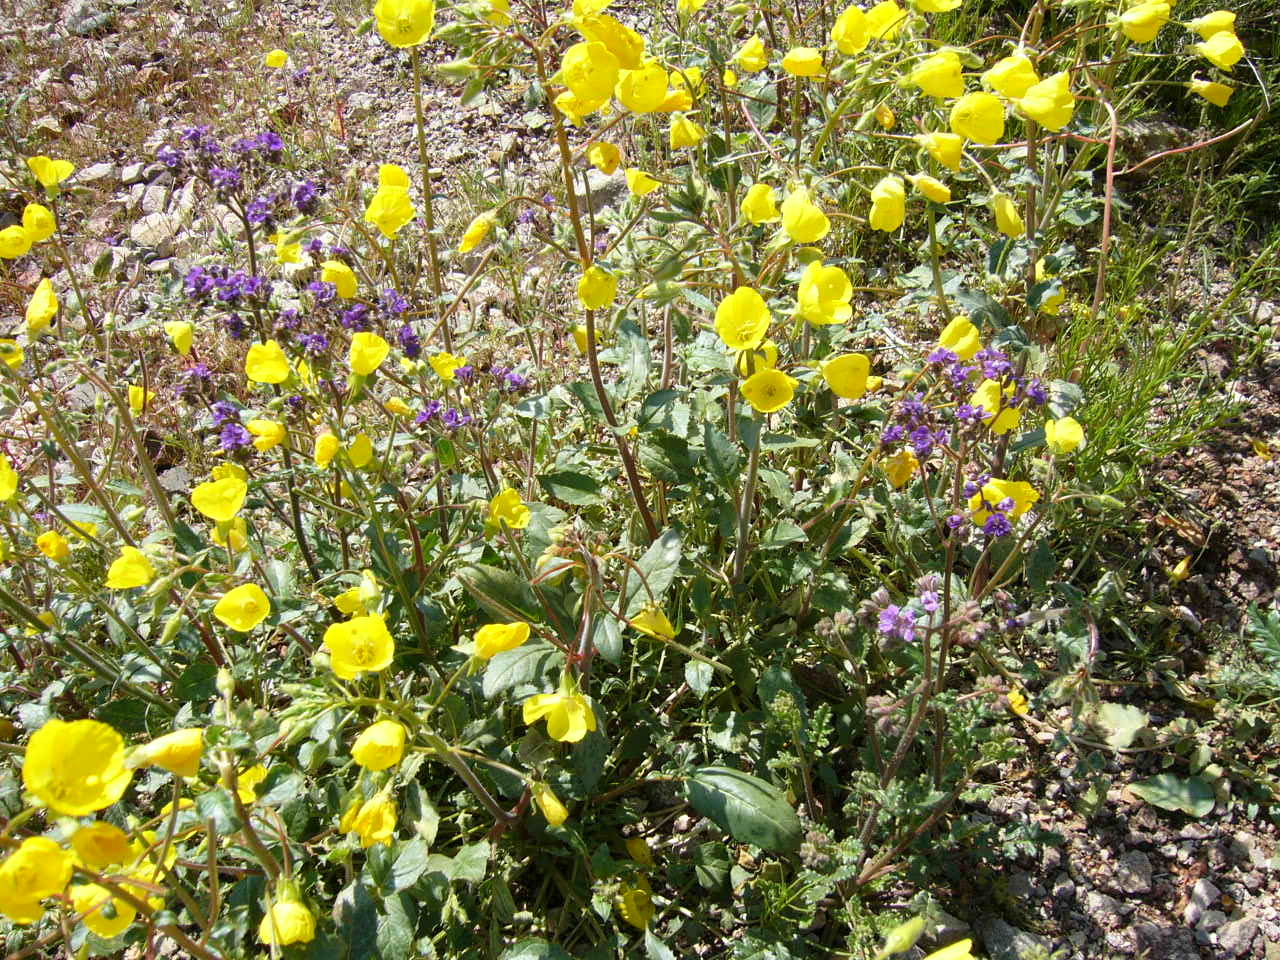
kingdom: Plantae
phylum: Tracheophyta
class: Magnoliopsida
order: Myrtales
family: Onagraceae
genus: Chylismia
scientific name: Chylismia brevipes
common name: Yellow cups
